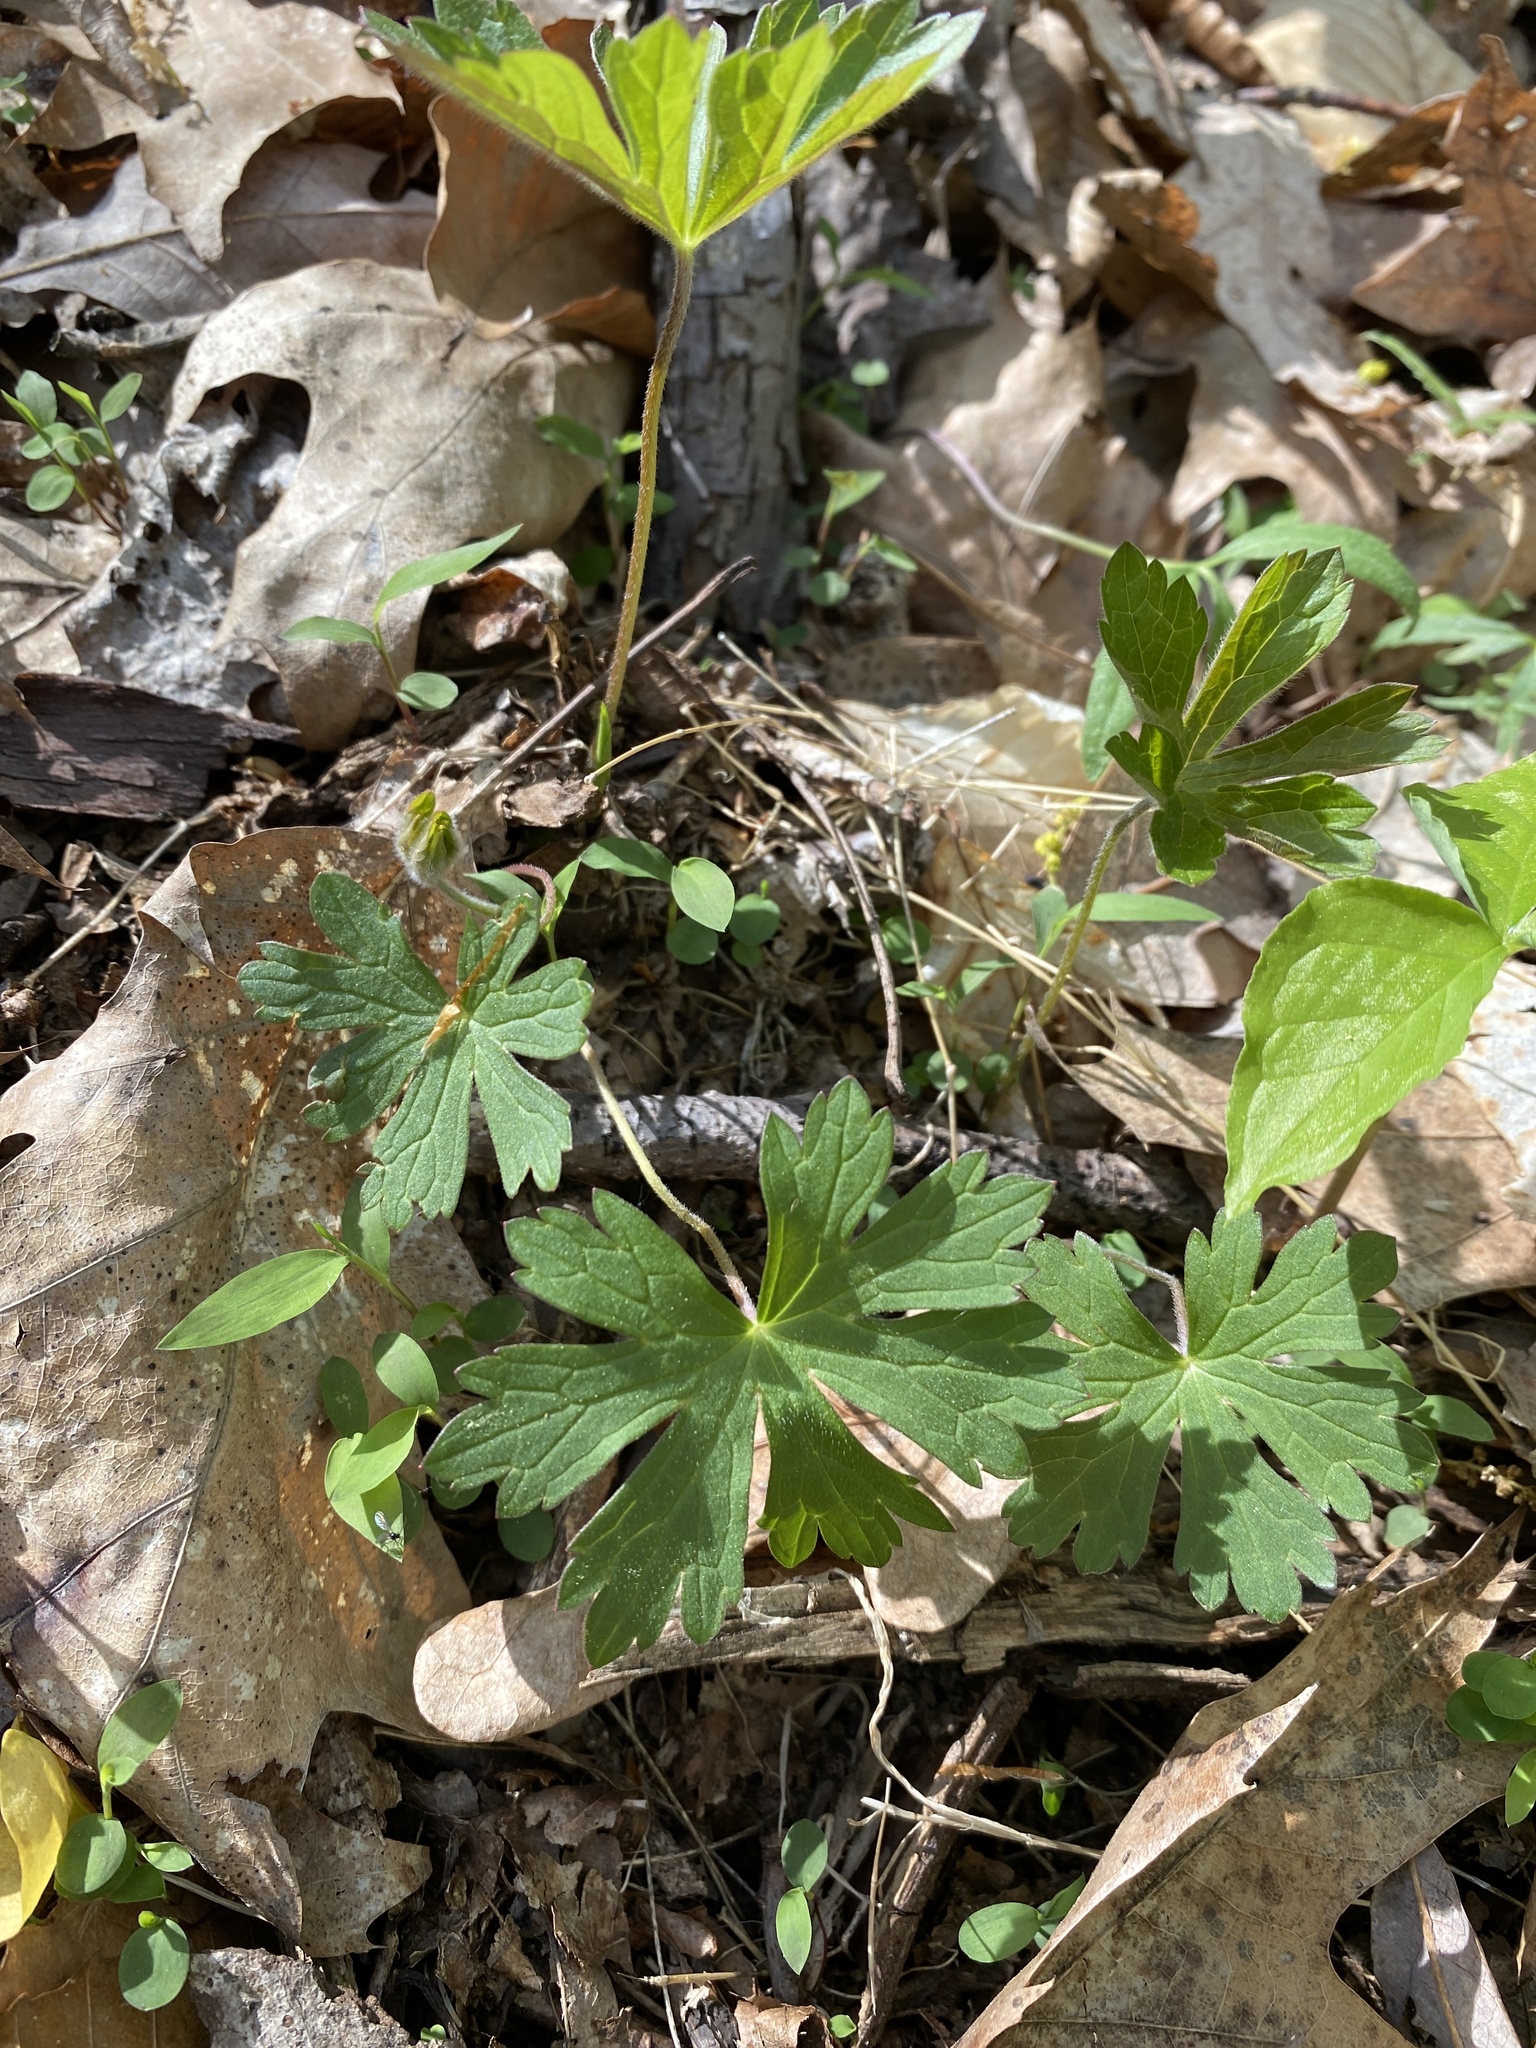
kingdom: Plantae
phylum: Tracheophyta
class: Magnoliopsida
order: Geraniales
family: Geraniaceae
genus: Geranium
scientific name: Geranium maculatum
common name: Spotted geranium
